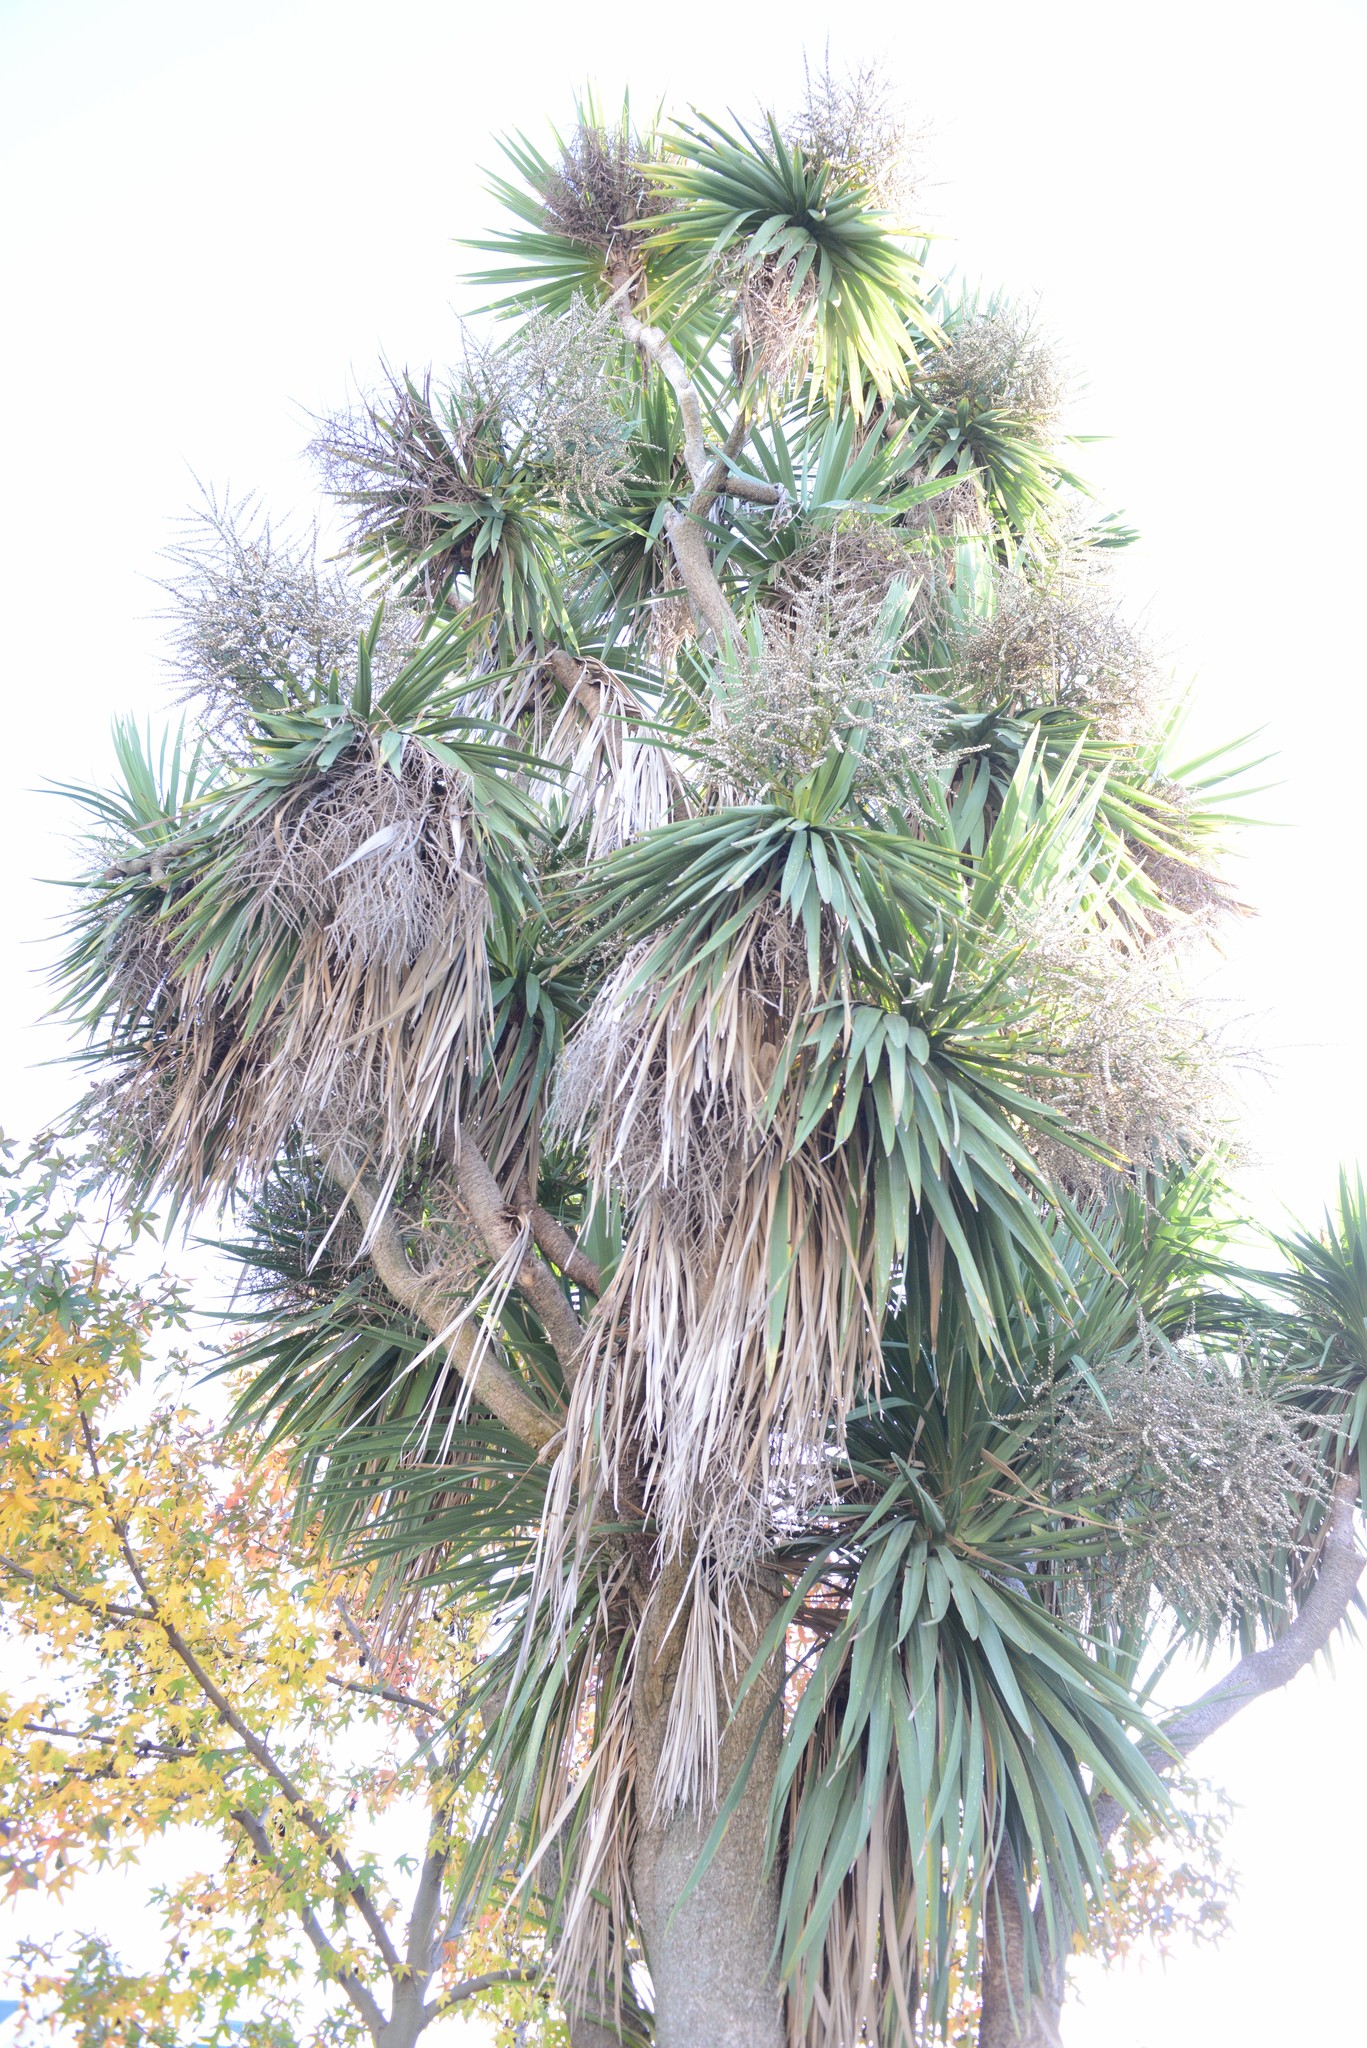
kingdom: Plantae
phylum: Tracheophyta
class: Liliopsida
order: Asparagales
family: Asparagaceae
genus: Cordyline
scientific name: Cordyline australis
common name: Cabbage-palm
